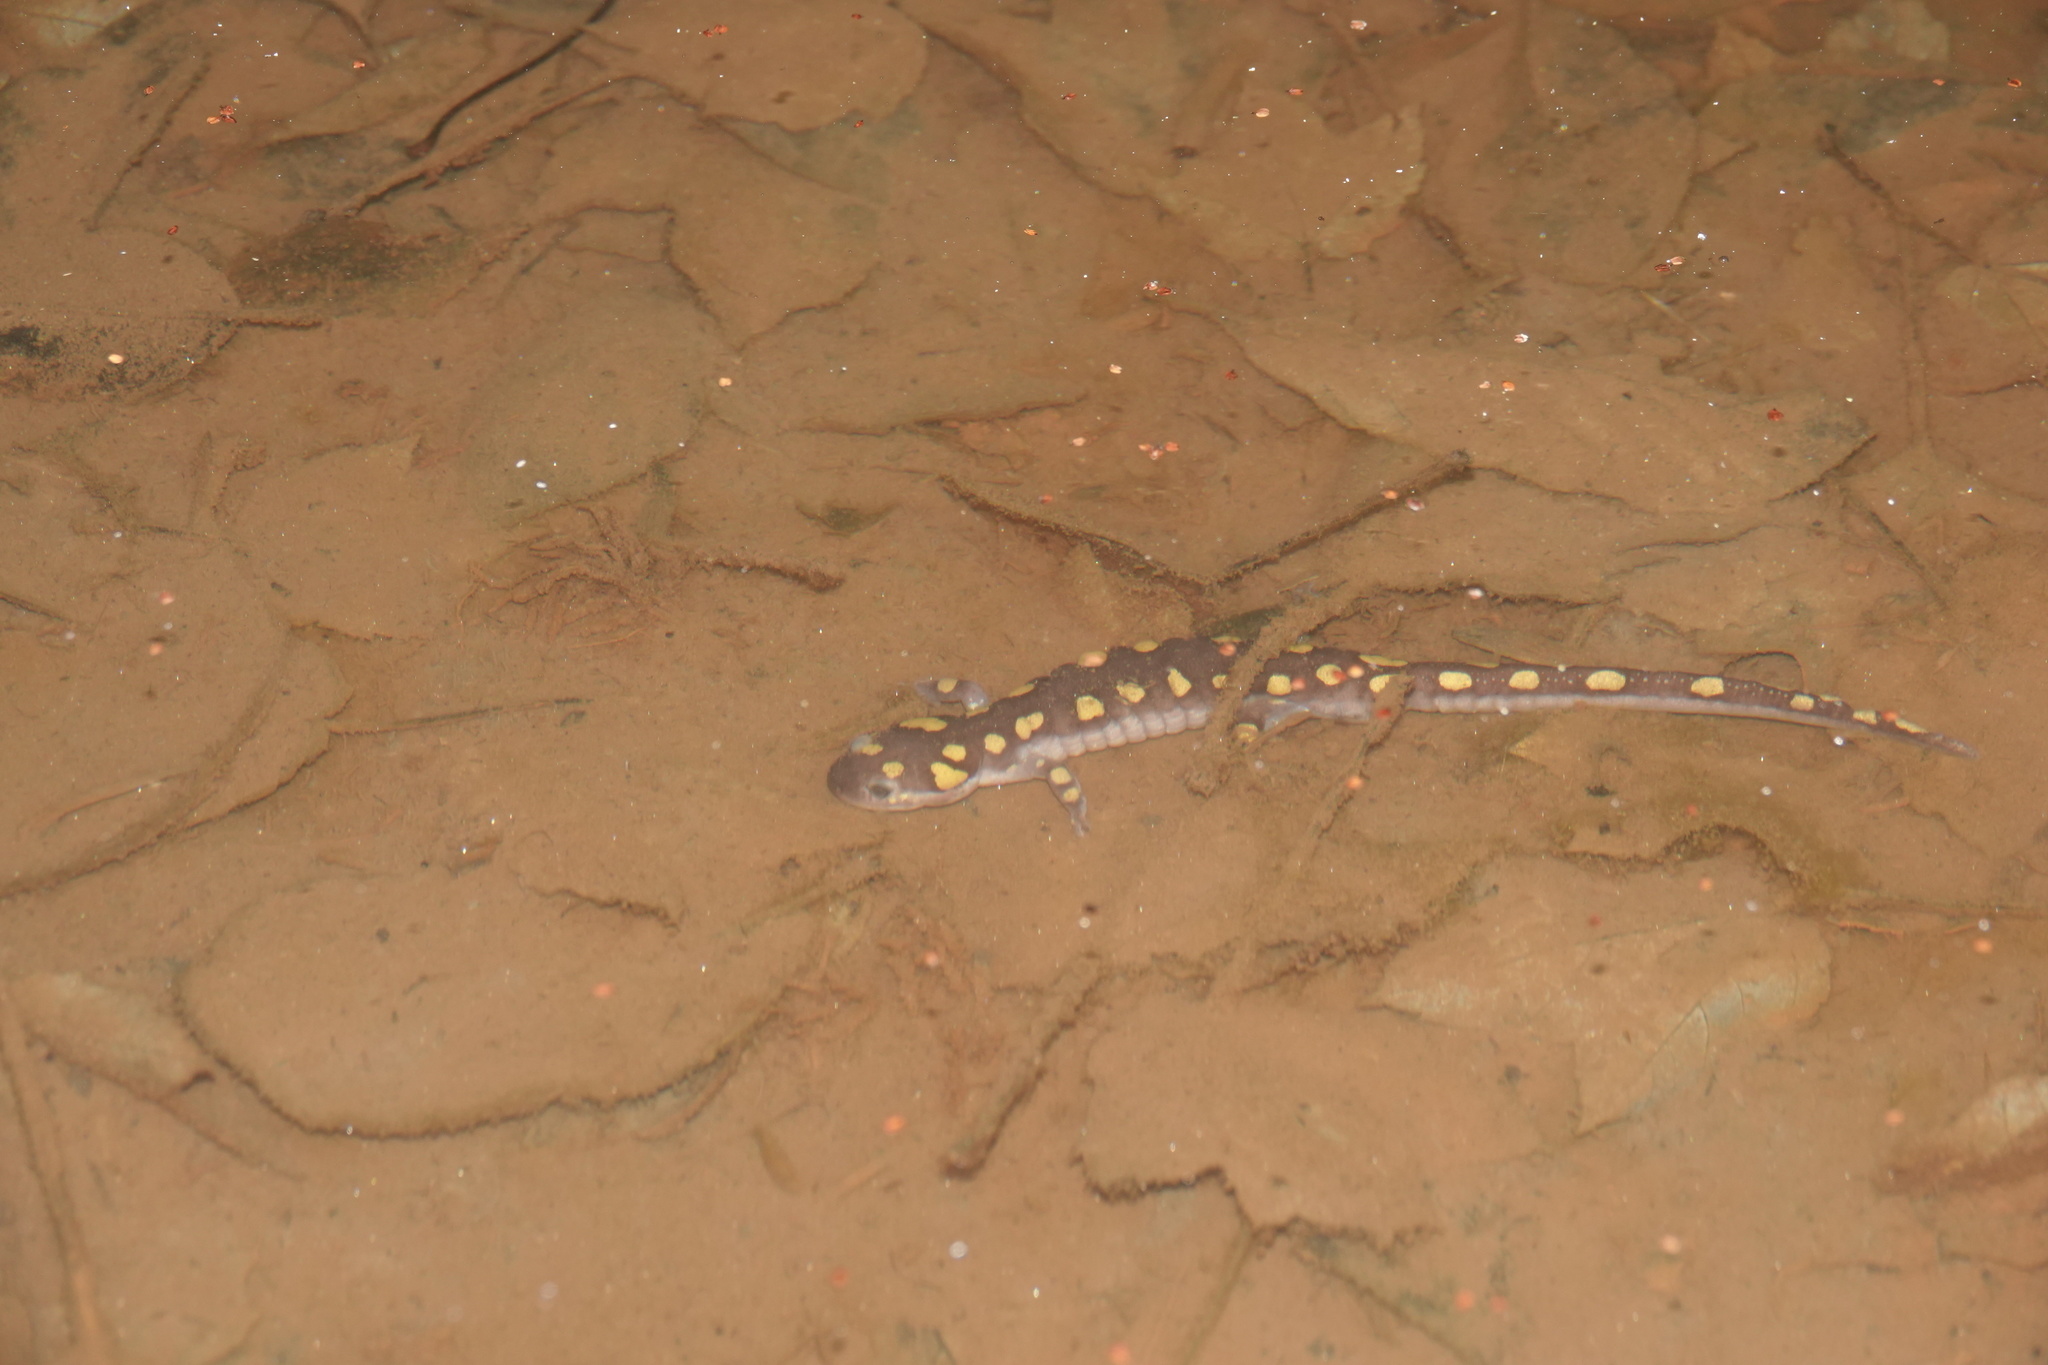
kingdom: Animalia
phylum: Chordata
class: Amphibia
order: Caudata
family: Ambystomatidae
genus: Ambystoma
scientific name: Ambystoma maculatum
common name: Spotted salamander
